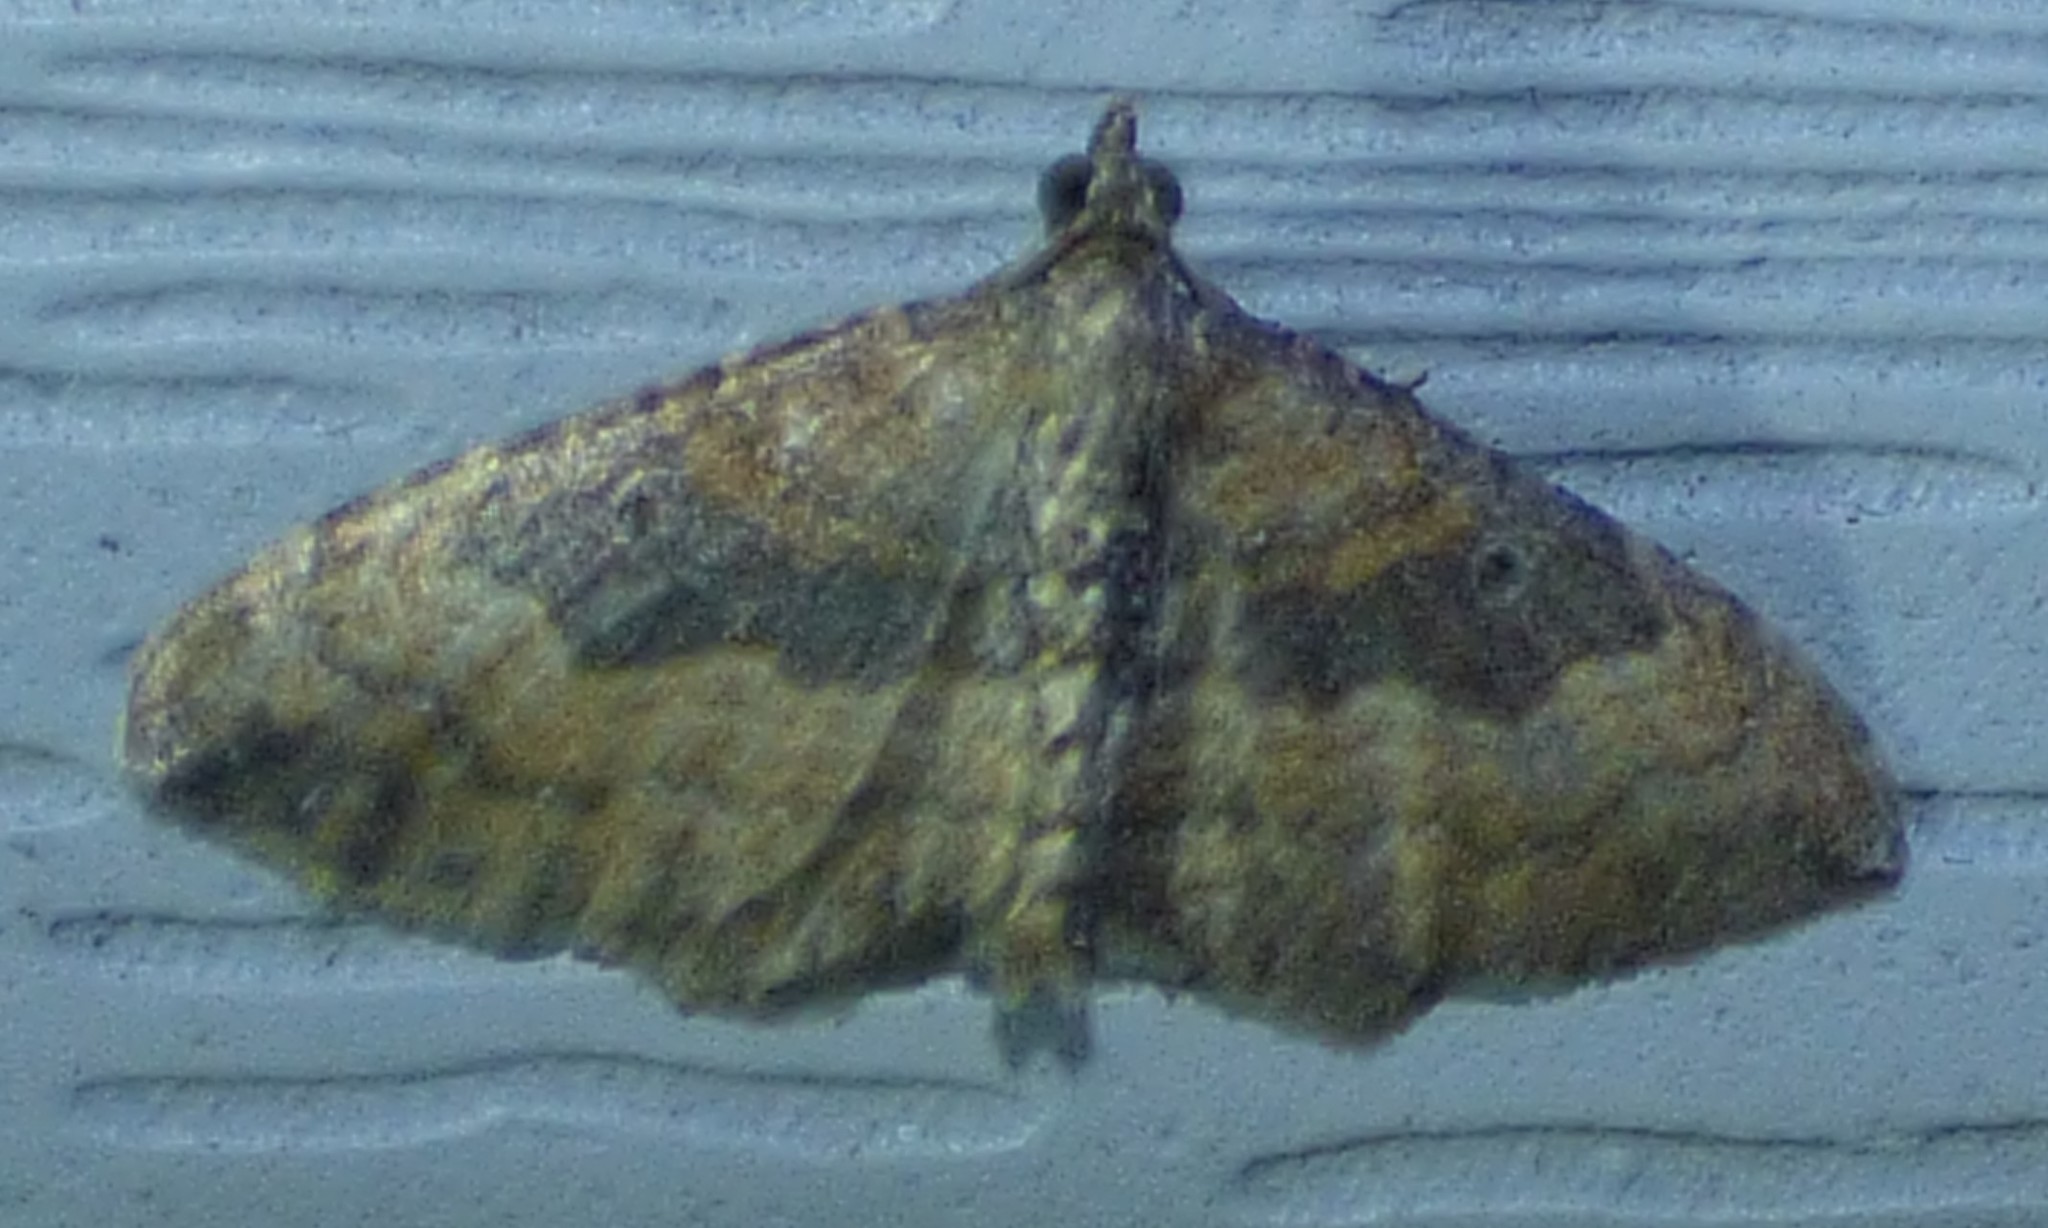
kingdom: Animalia
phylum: Arthropoda
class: Insecta
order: Lepidoptera
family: Geometridae
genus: Orthonama
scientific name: Orthonama obstipata
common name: The gem
